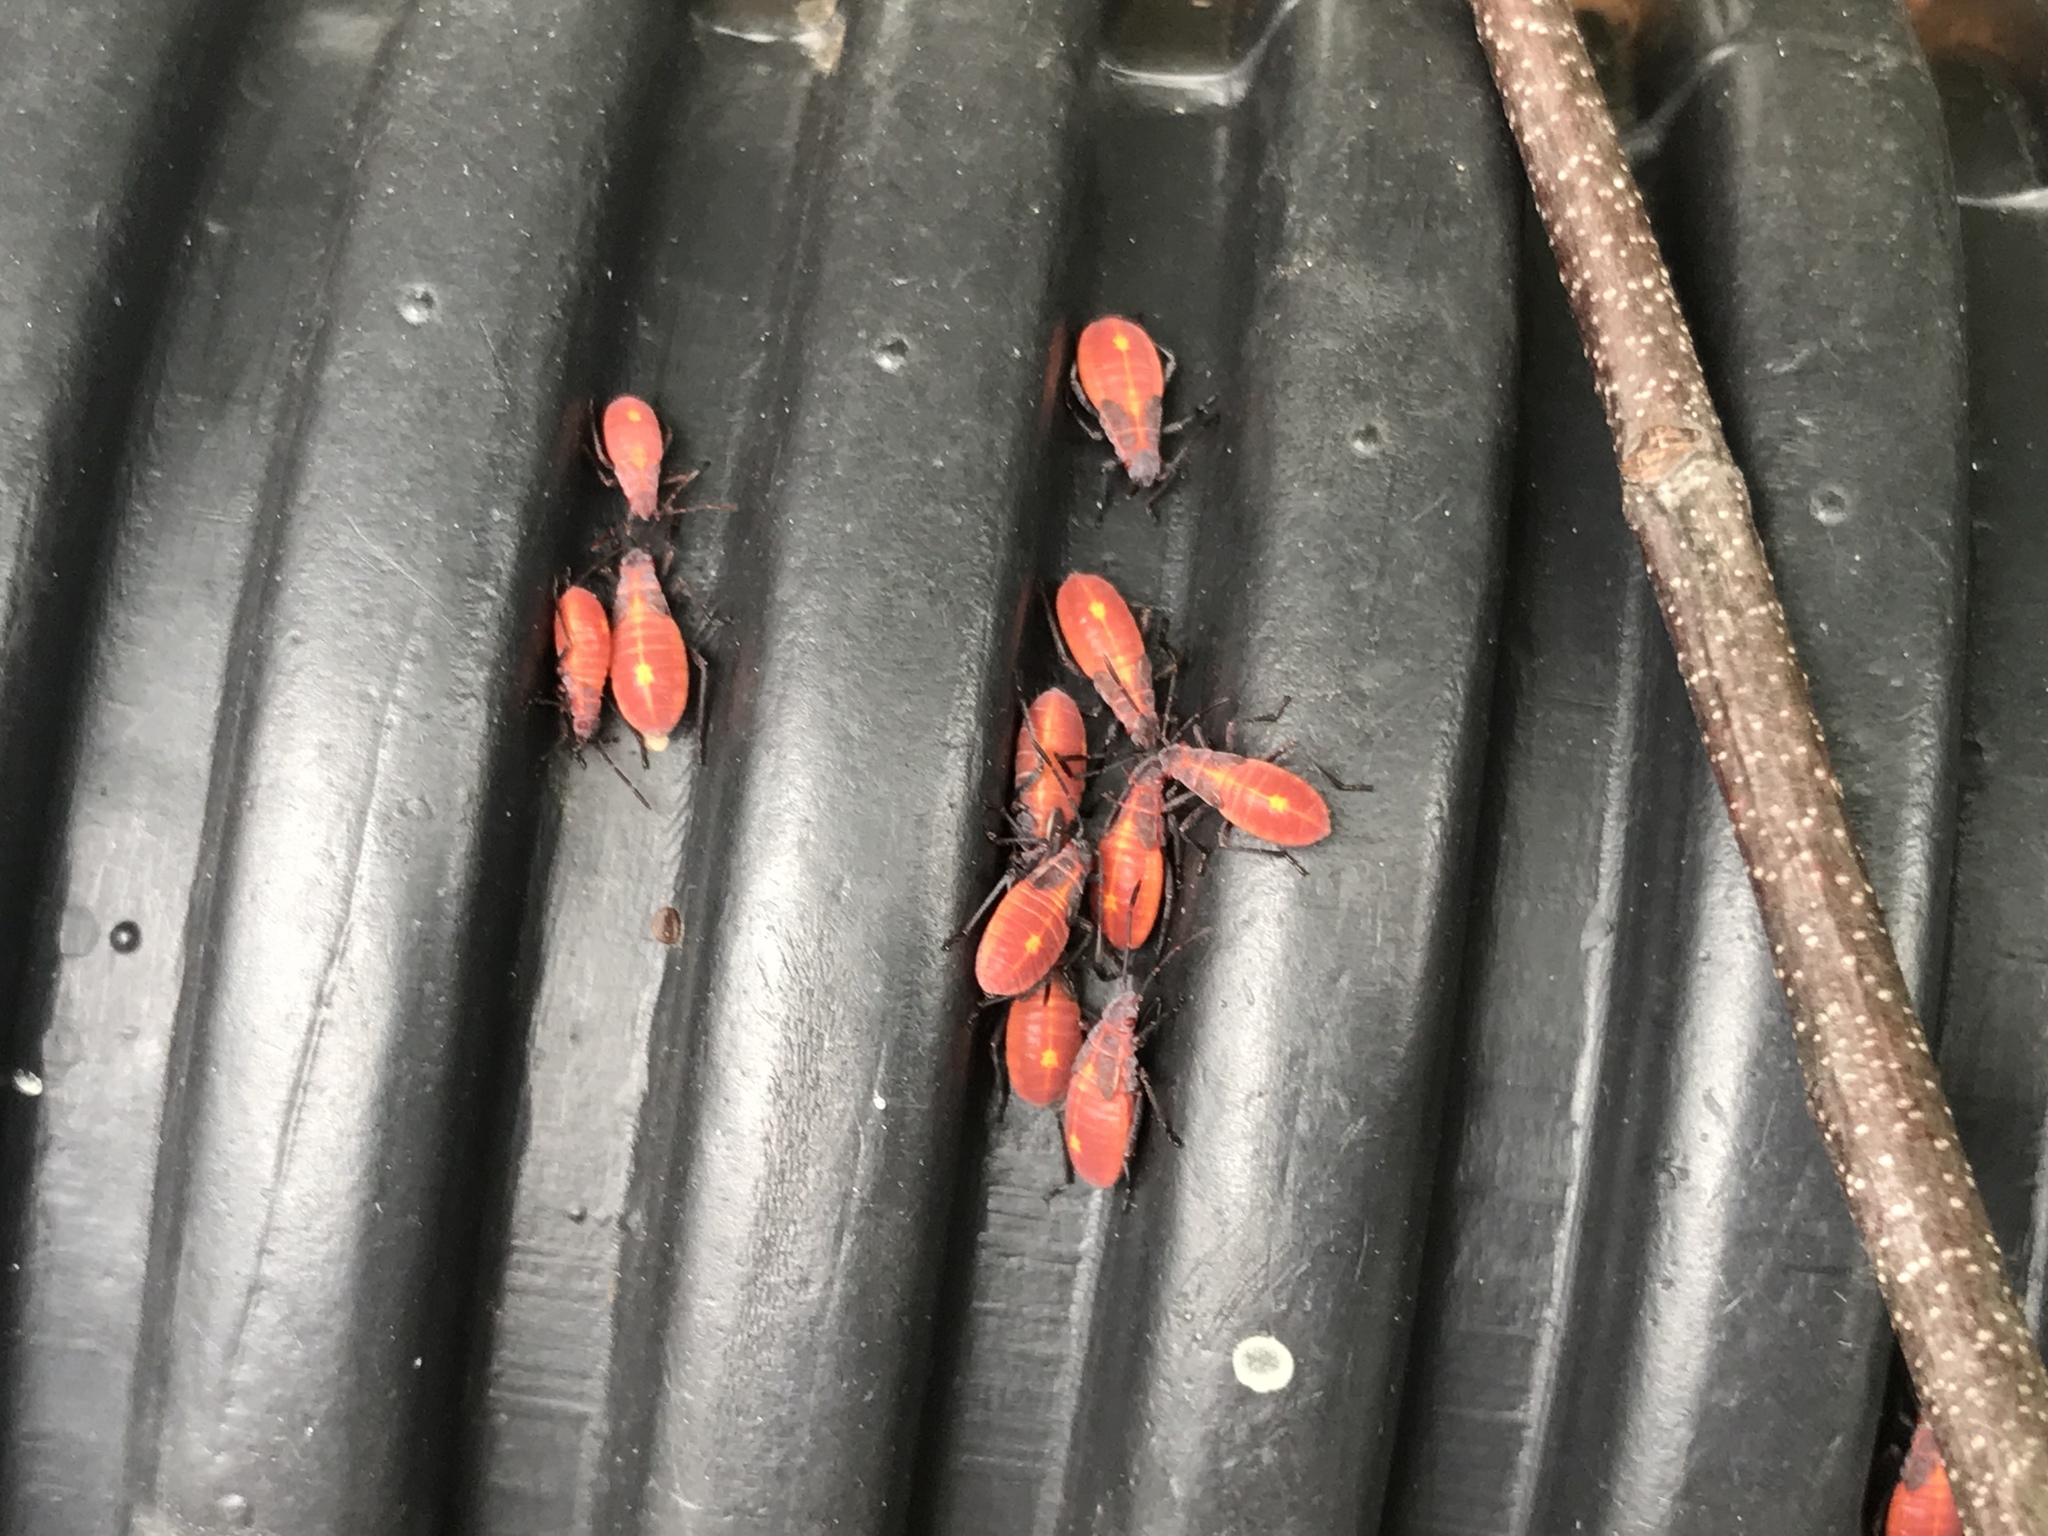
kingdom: Animalia
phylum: Arthropoda
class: Insecta
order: Hemiptera
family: Rhopalidae
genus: Boisea
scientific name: Boisea trivittata
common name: Boxelder bug
